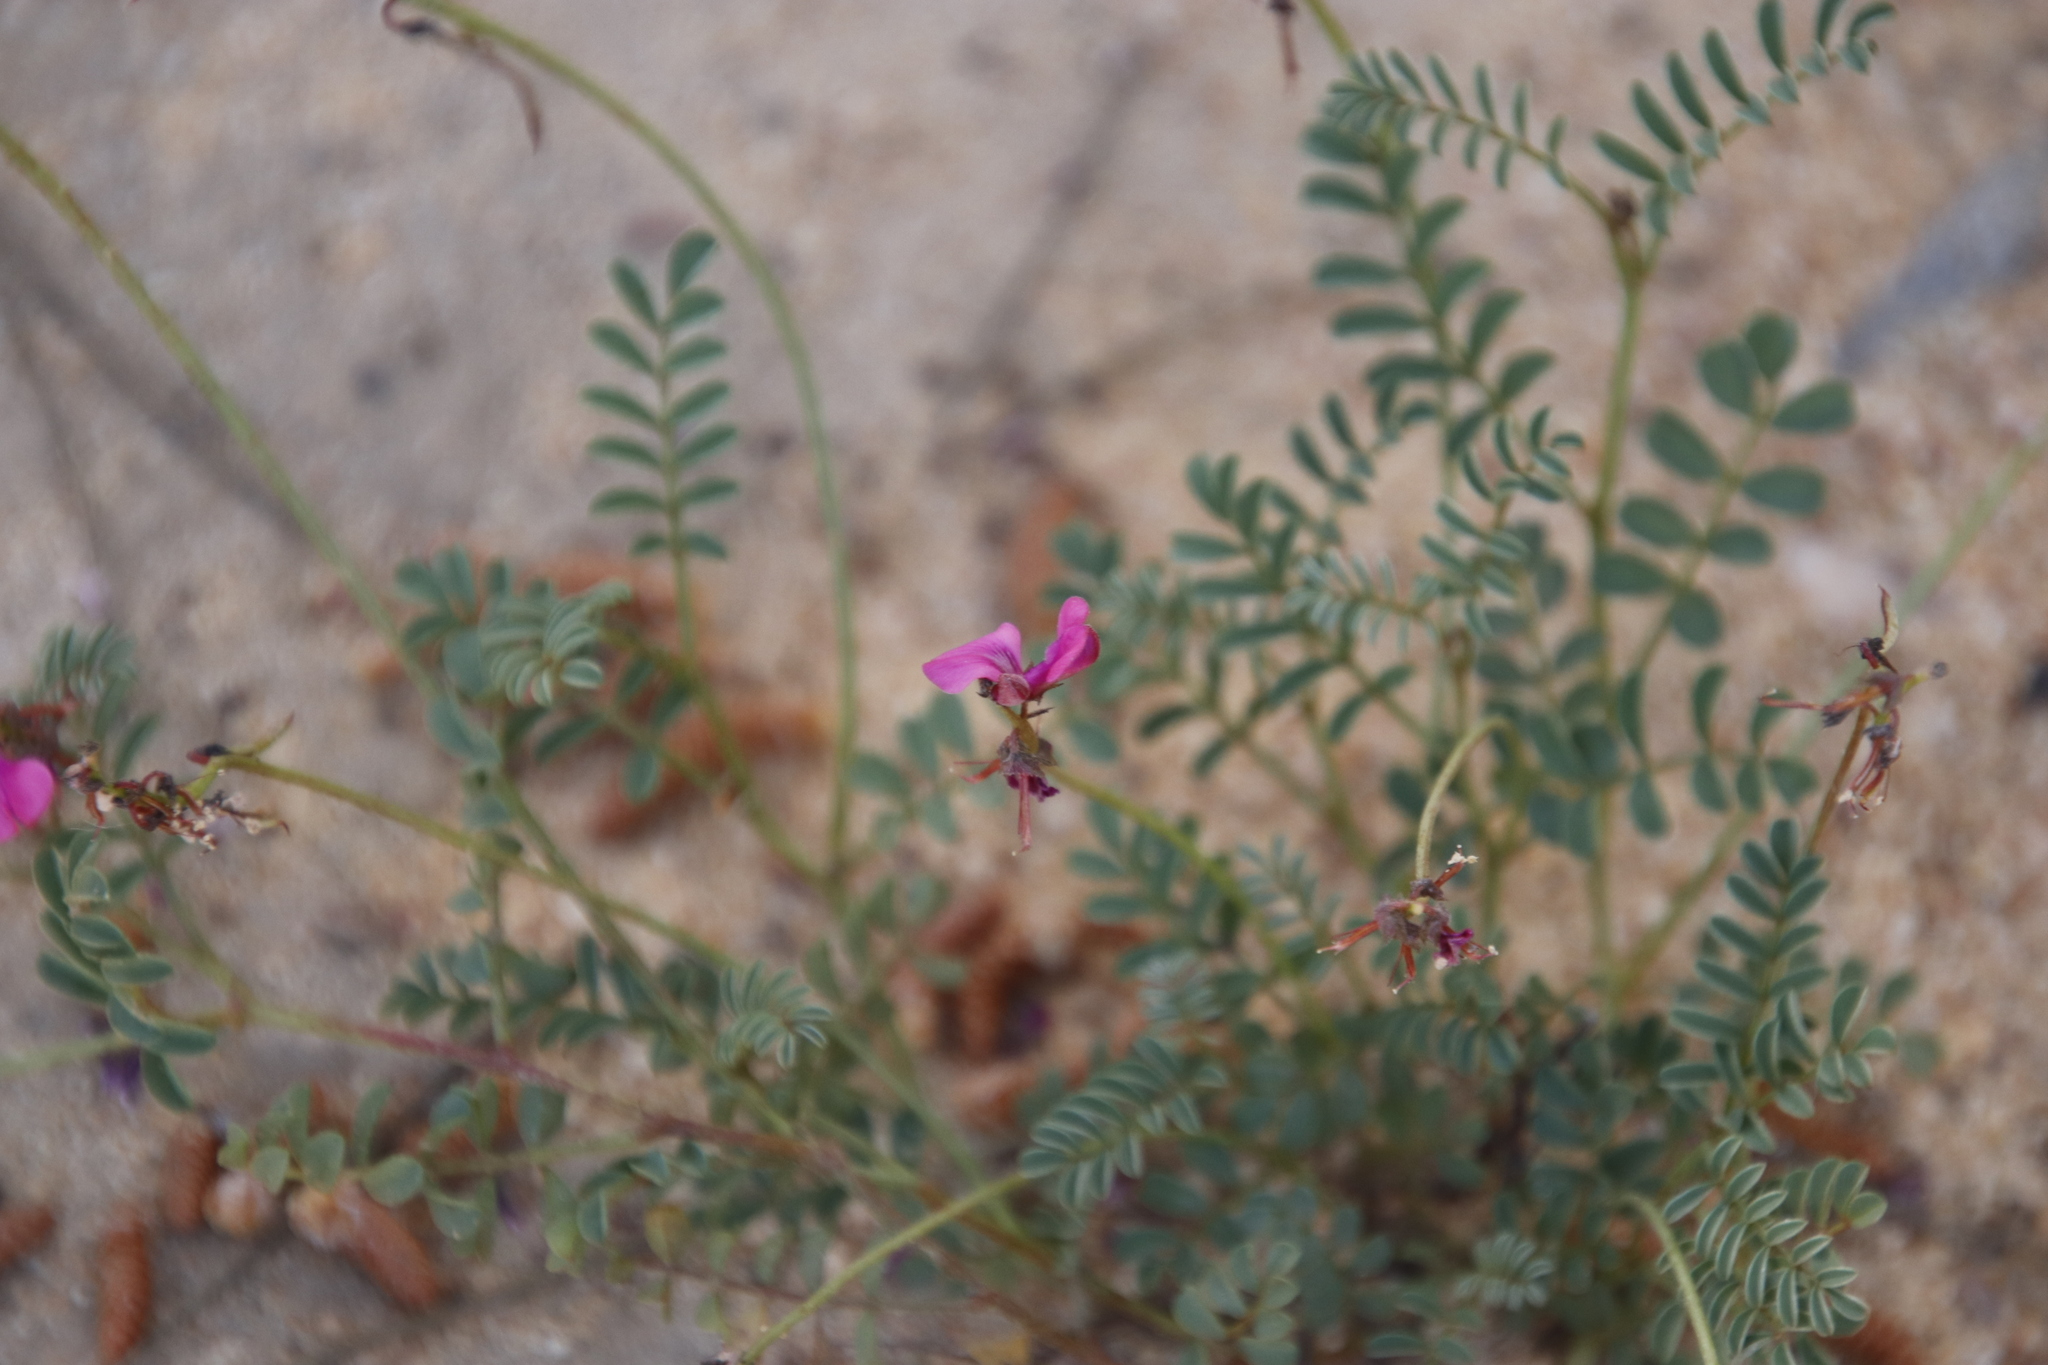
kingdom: Plantae
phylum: Tracheophyta
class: Magnoliopsida
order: Fabales
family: Fabaceae
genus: Indigofera
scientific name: Indigofera humifusa
